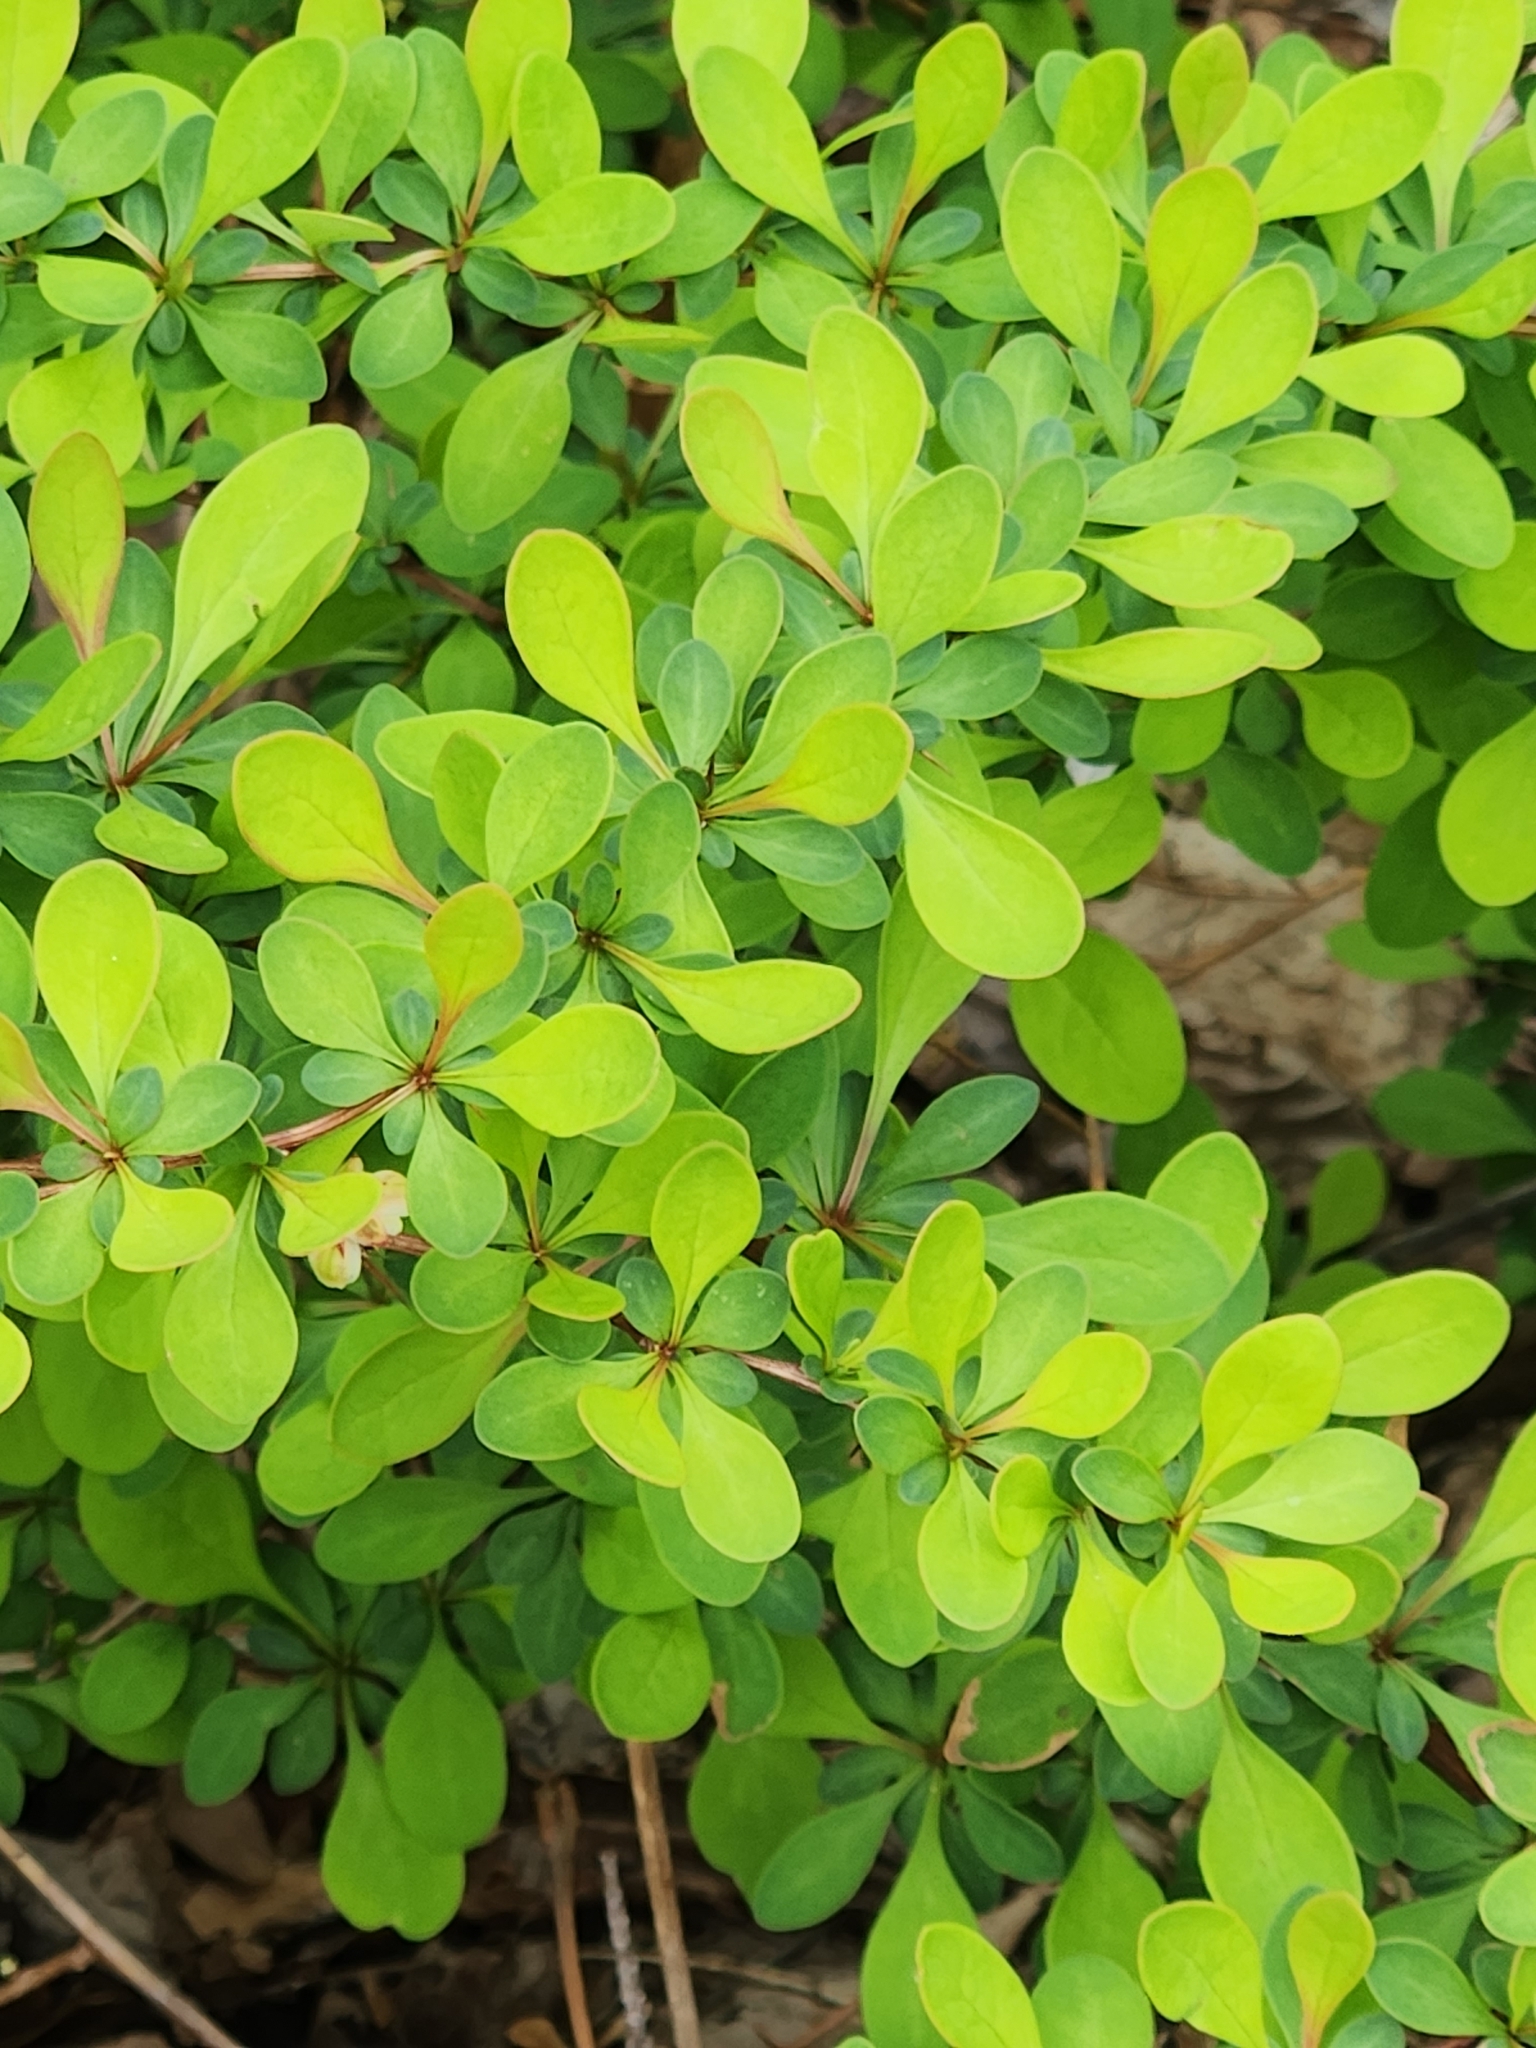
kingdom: Plantae
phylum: Tracheophyta
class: Magnoliopsida
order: Ranunculales
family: Berberidaceae
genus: Berberis
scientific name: Berberis thunbergii
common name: Japanese barberry
